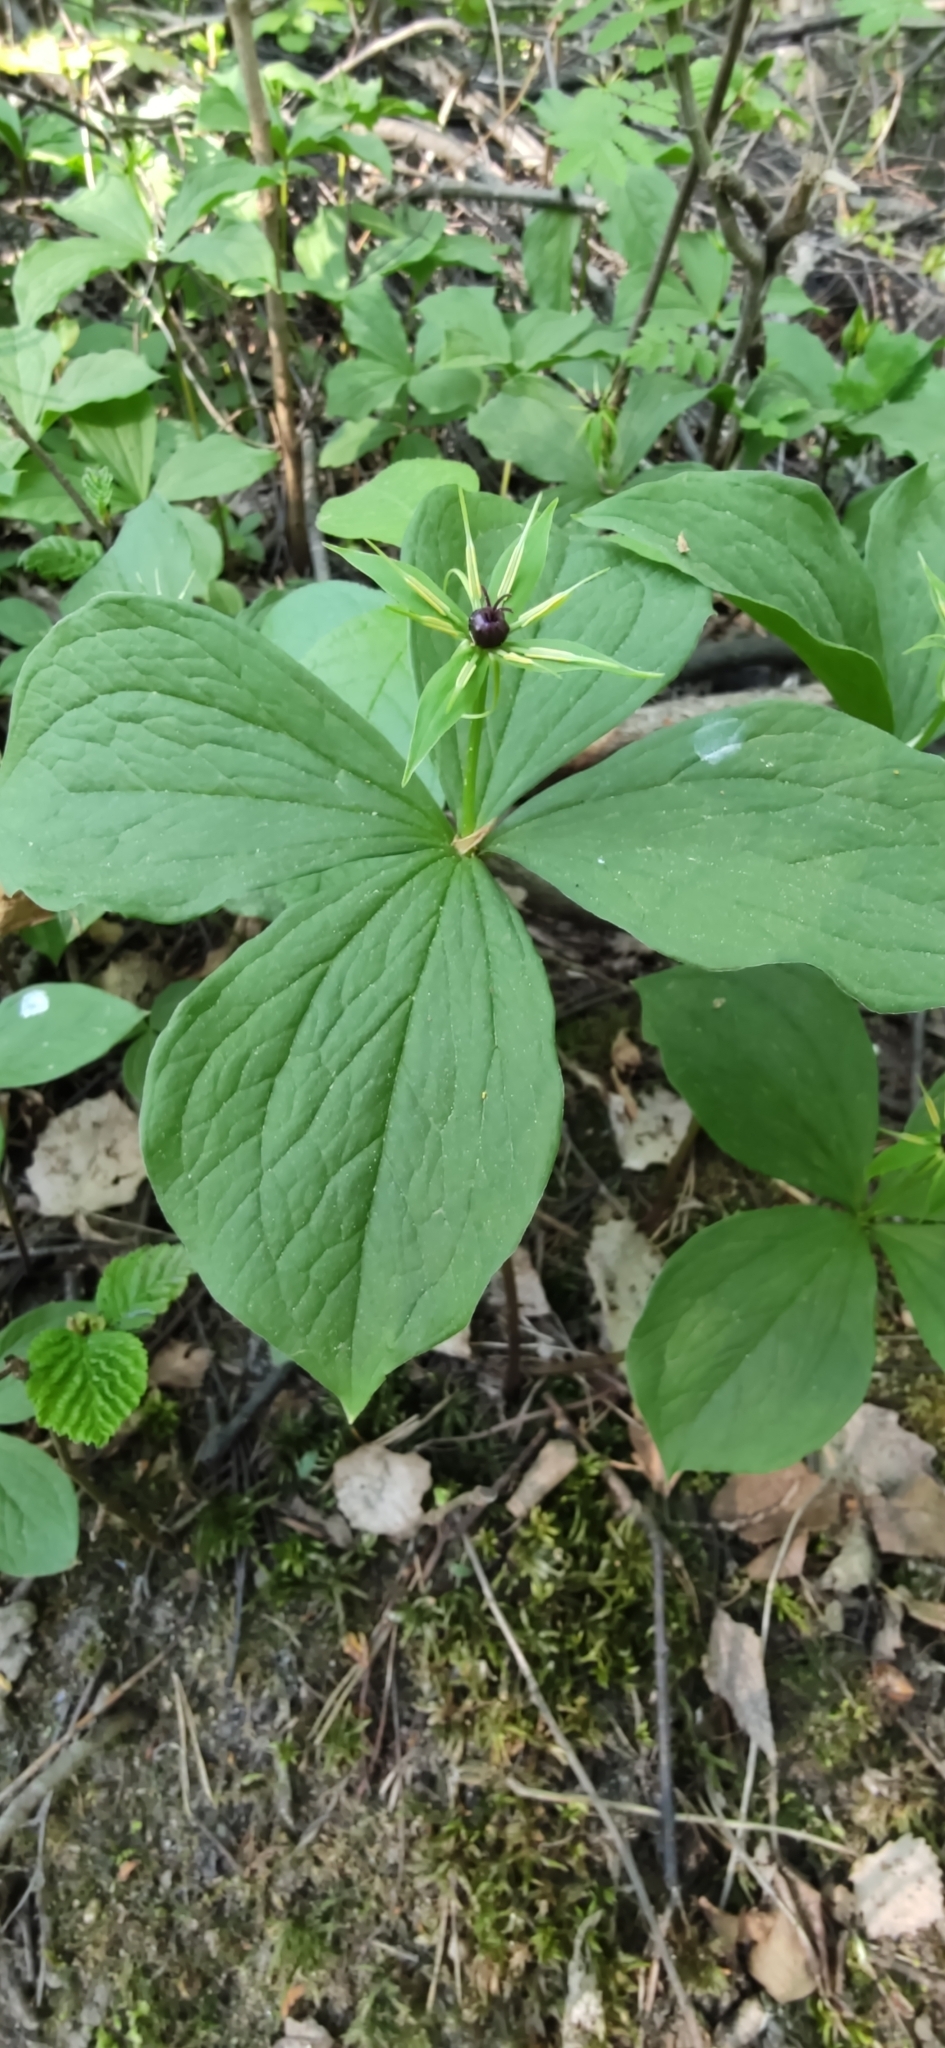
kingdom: Plantae
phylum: Tracheophyta
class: Liliopsida
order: Liliales
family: Melanthiaceae
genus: Paris
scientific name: Paris quadrifolia
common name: Herb-paris
